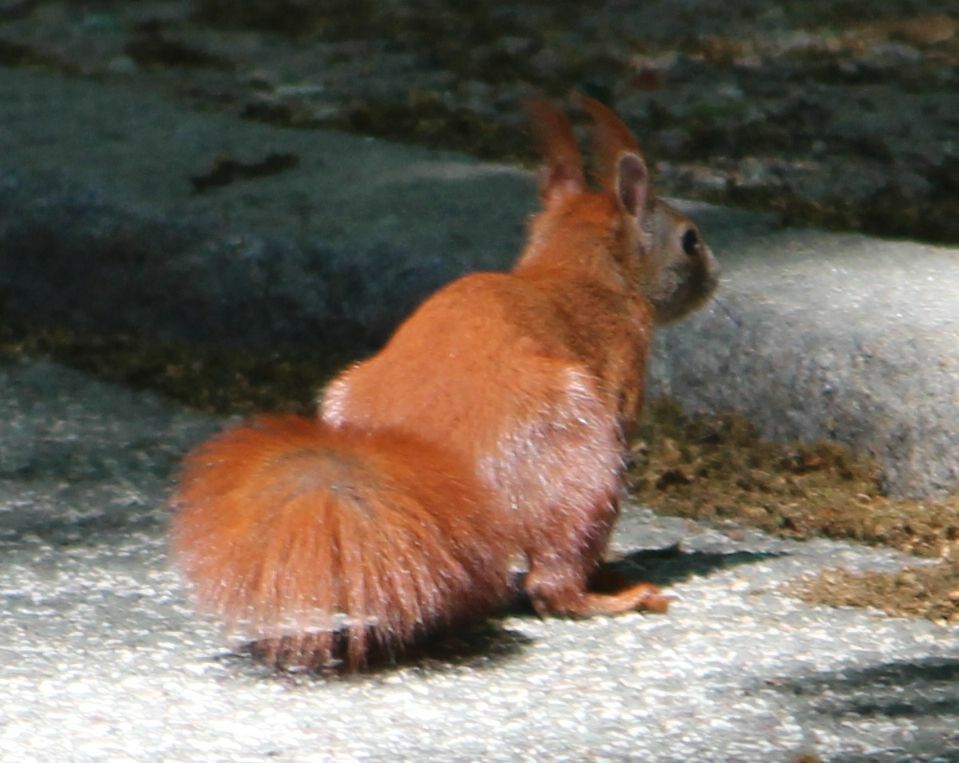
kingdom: Animalia
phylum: Chordata
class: Mammalia
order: Rodentia
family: Sciuridae
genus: Sciurus
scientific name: Sciurus vulgaris
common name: Eurasian red squirrel
